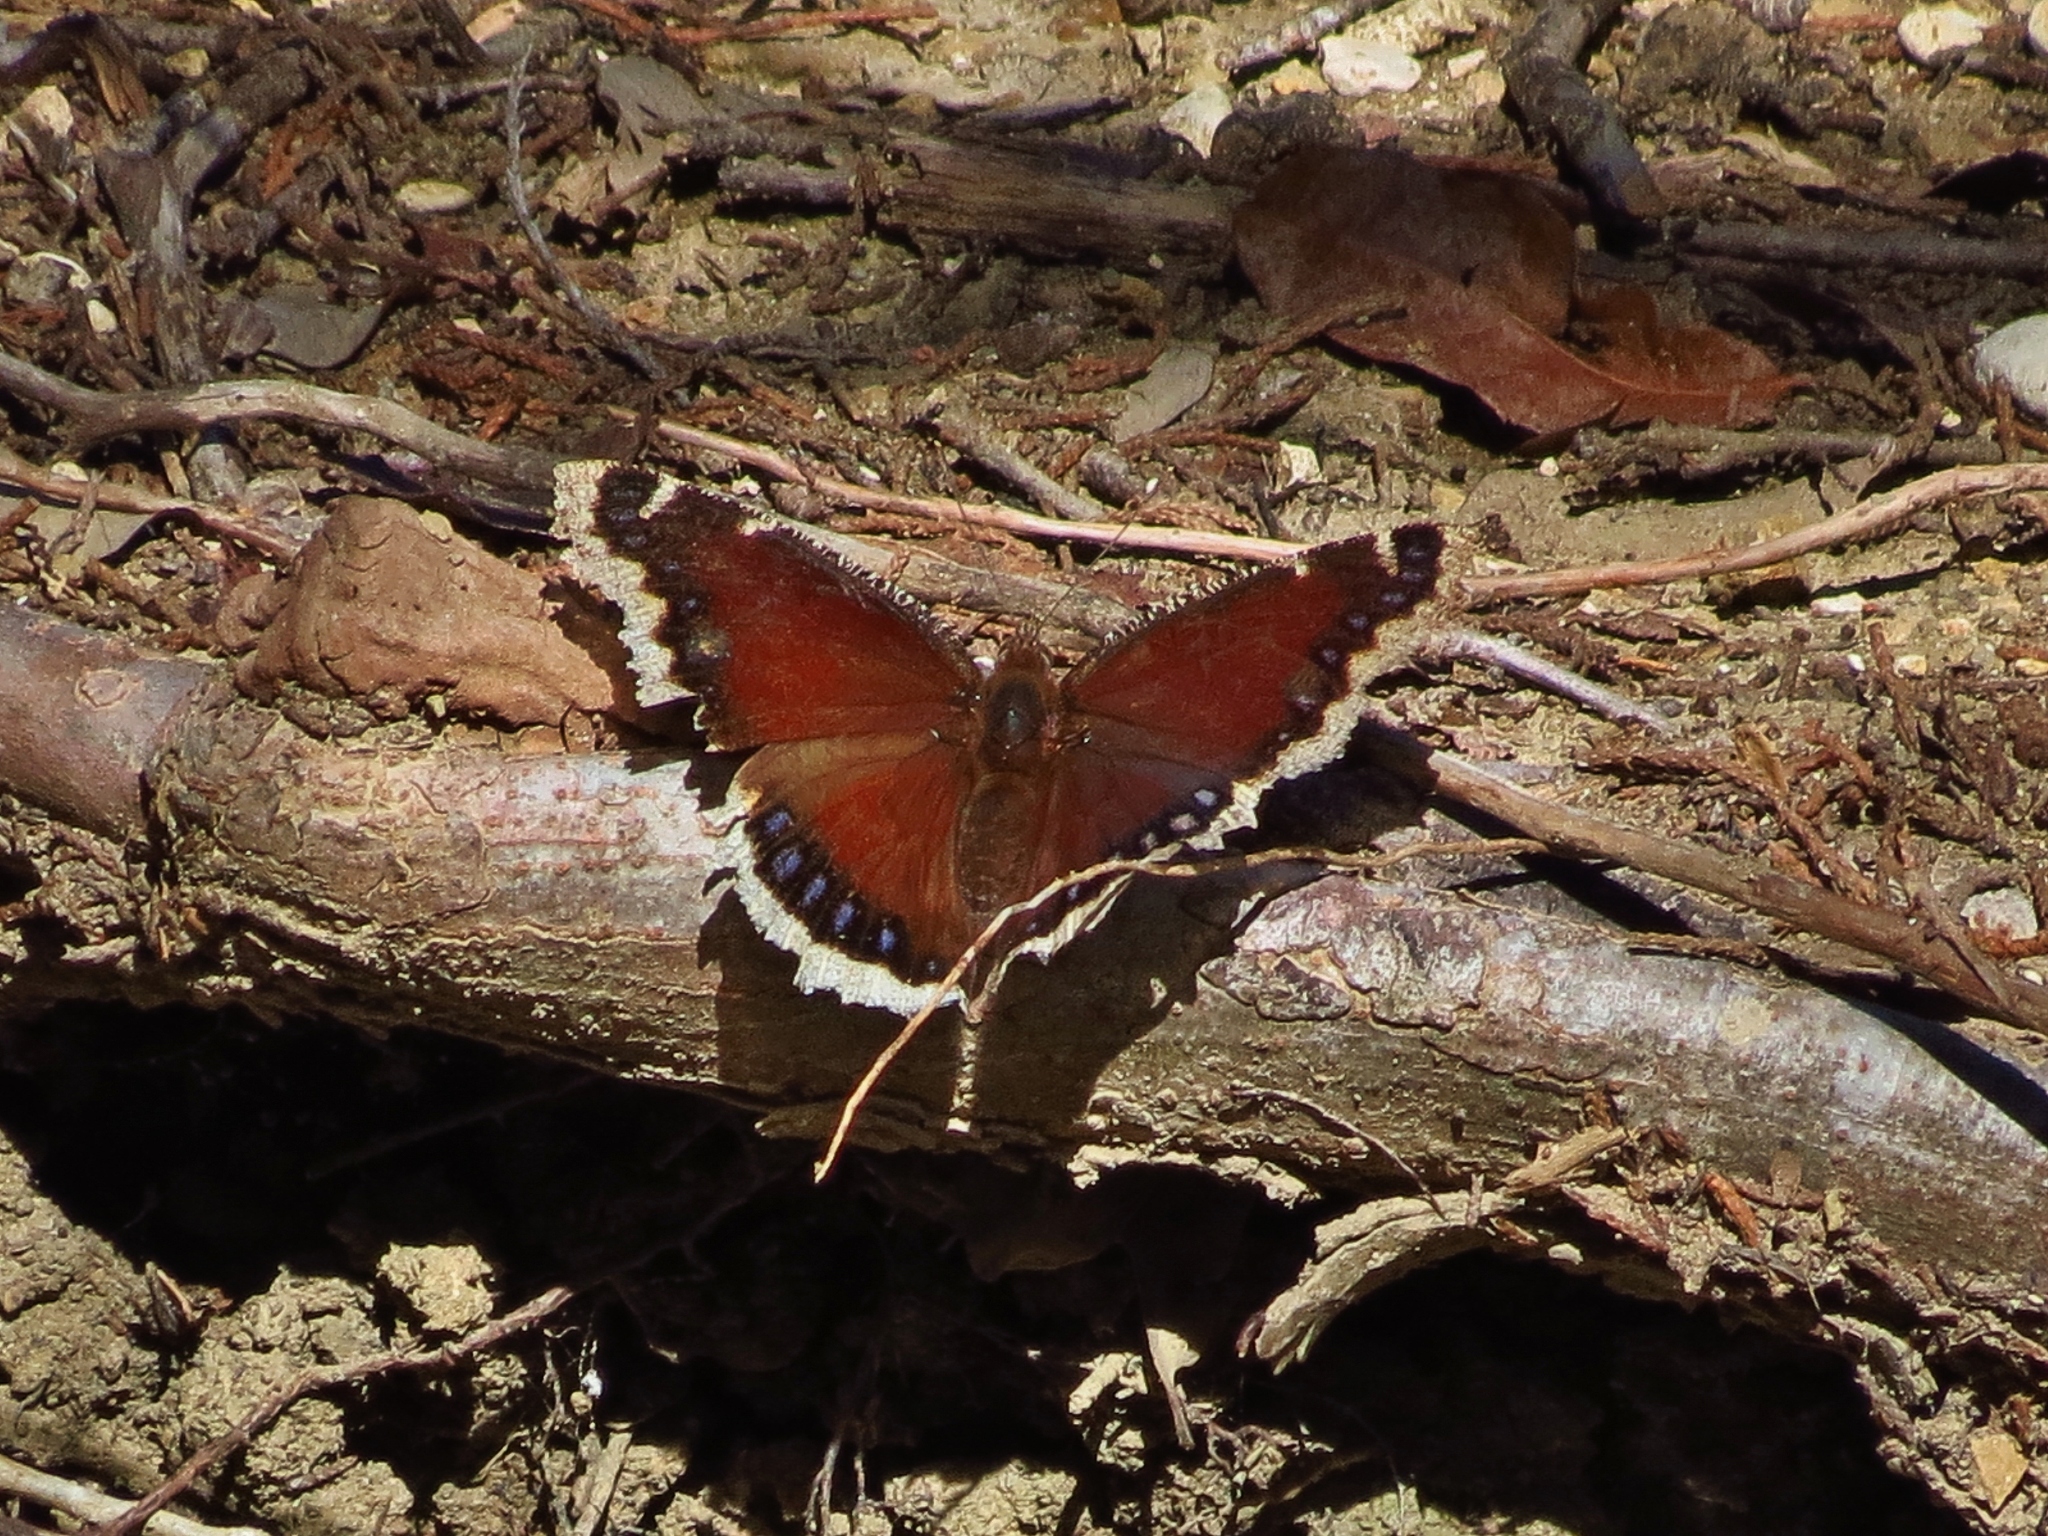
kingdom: Animalia
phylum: Arthropoda
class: Insecta
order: Lepidoptera
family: Nymphalidae
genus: Nymphalis
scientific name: Nymphalis antiopa
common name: Camberwell beauty
